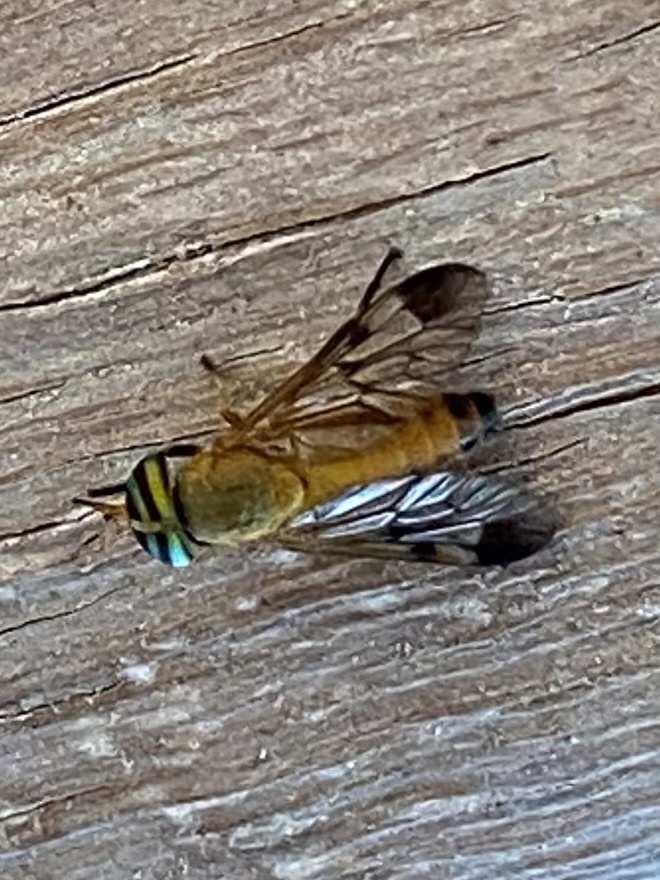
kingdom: Animalia
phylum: Arthropoda
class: Insecta
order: Diptera
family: Tabanidae
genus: Diachlorus
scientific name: Diachlorus ferrugatus
